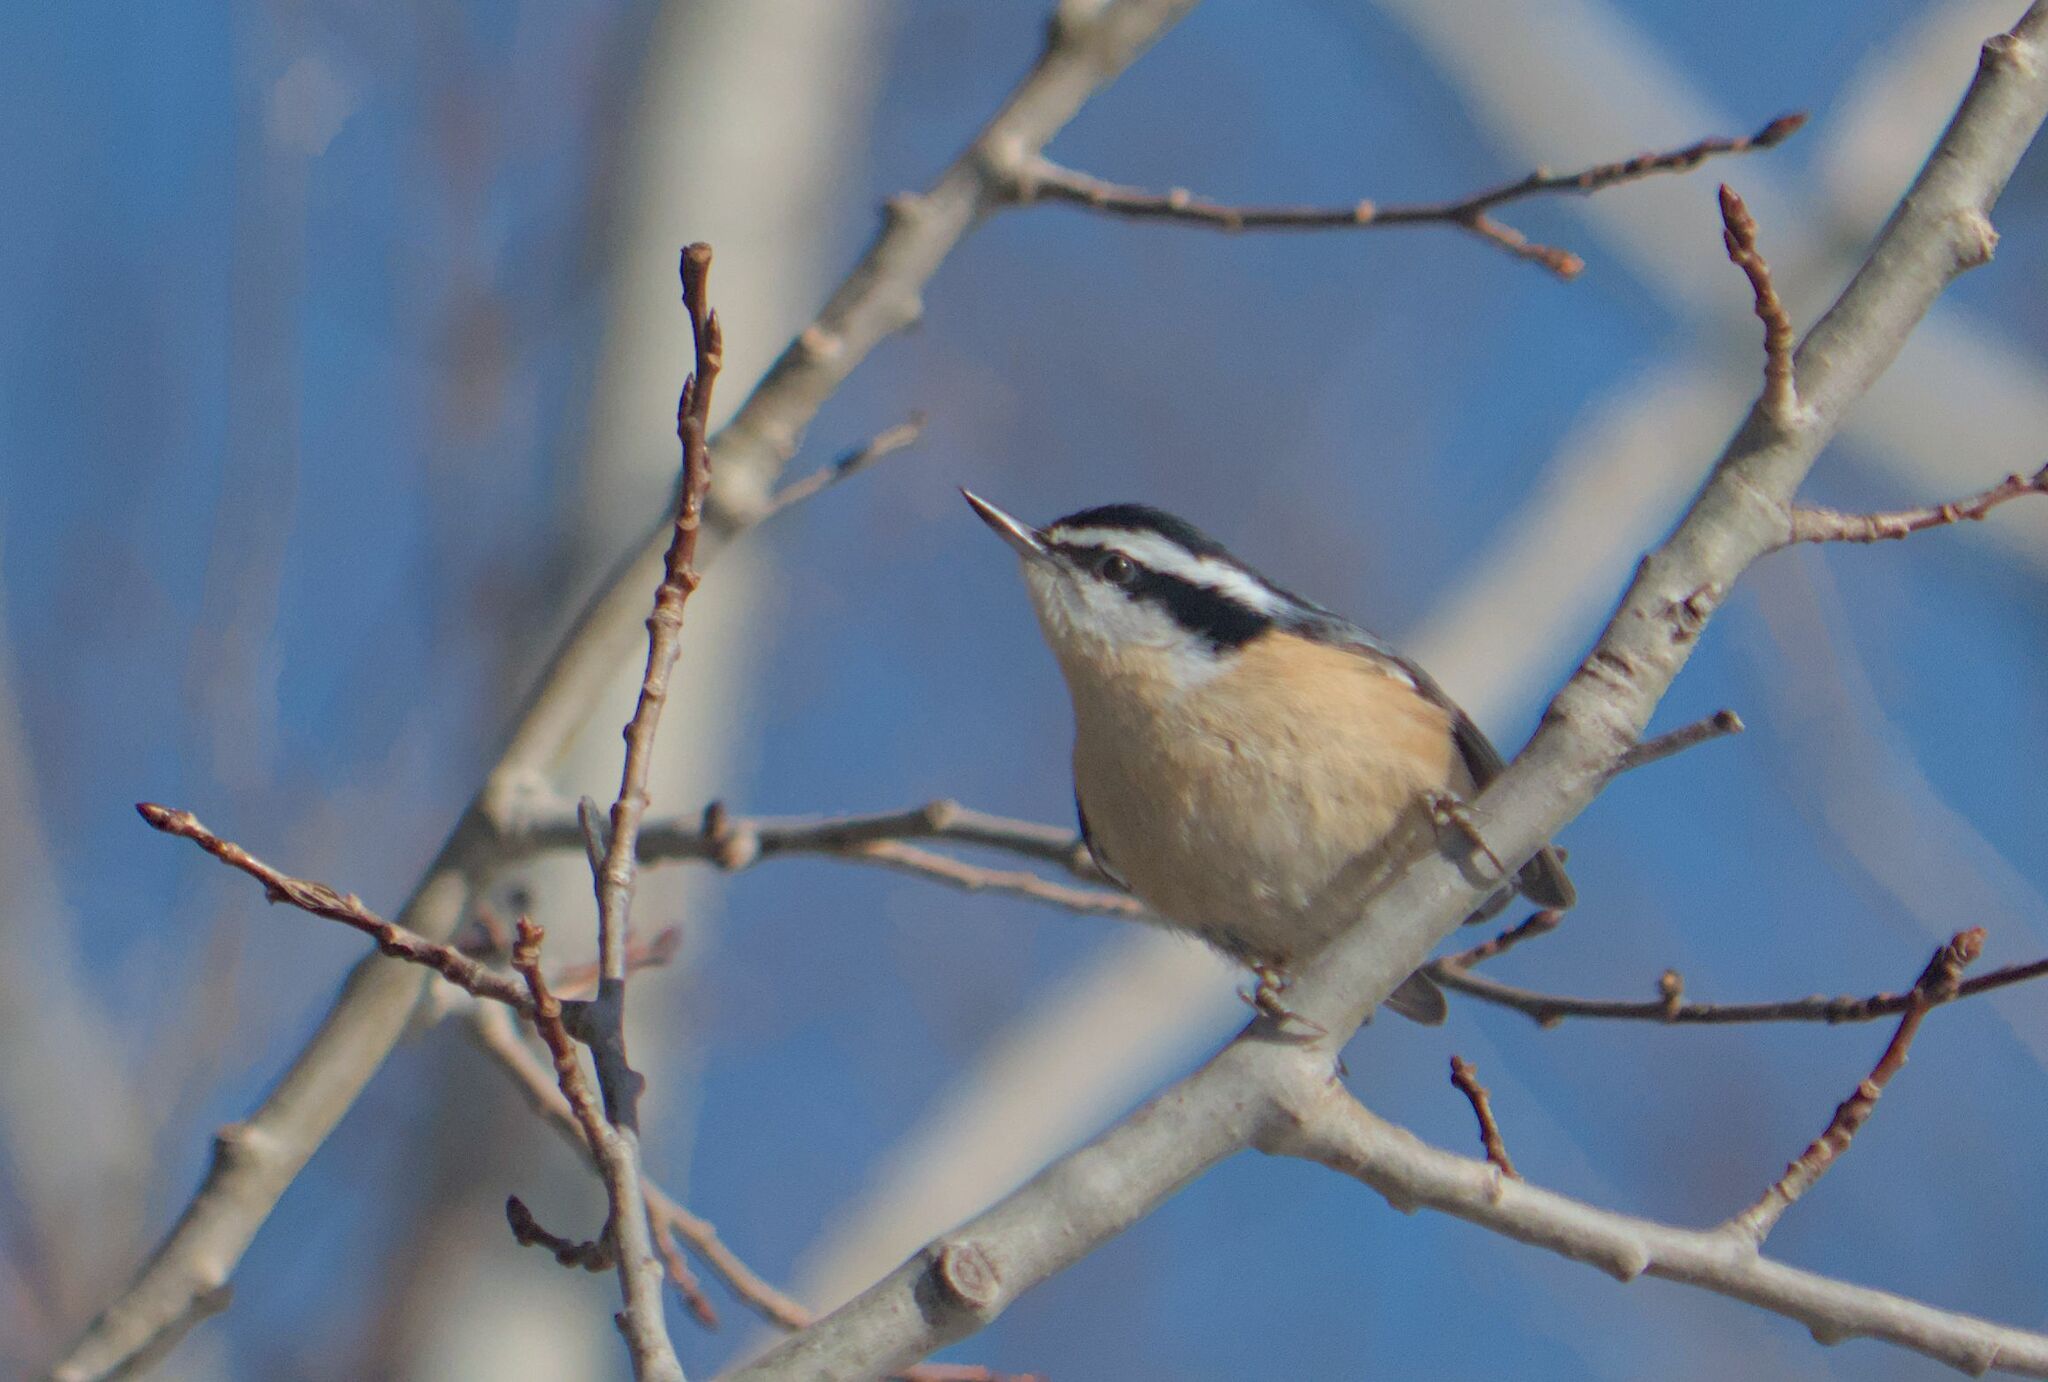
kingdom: Animalia
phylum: Chordata
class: Aves
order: Passeriformes
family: Sittidae
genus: Sitta
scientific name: Sitta canadensis
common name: Red-breasted nuthatch
